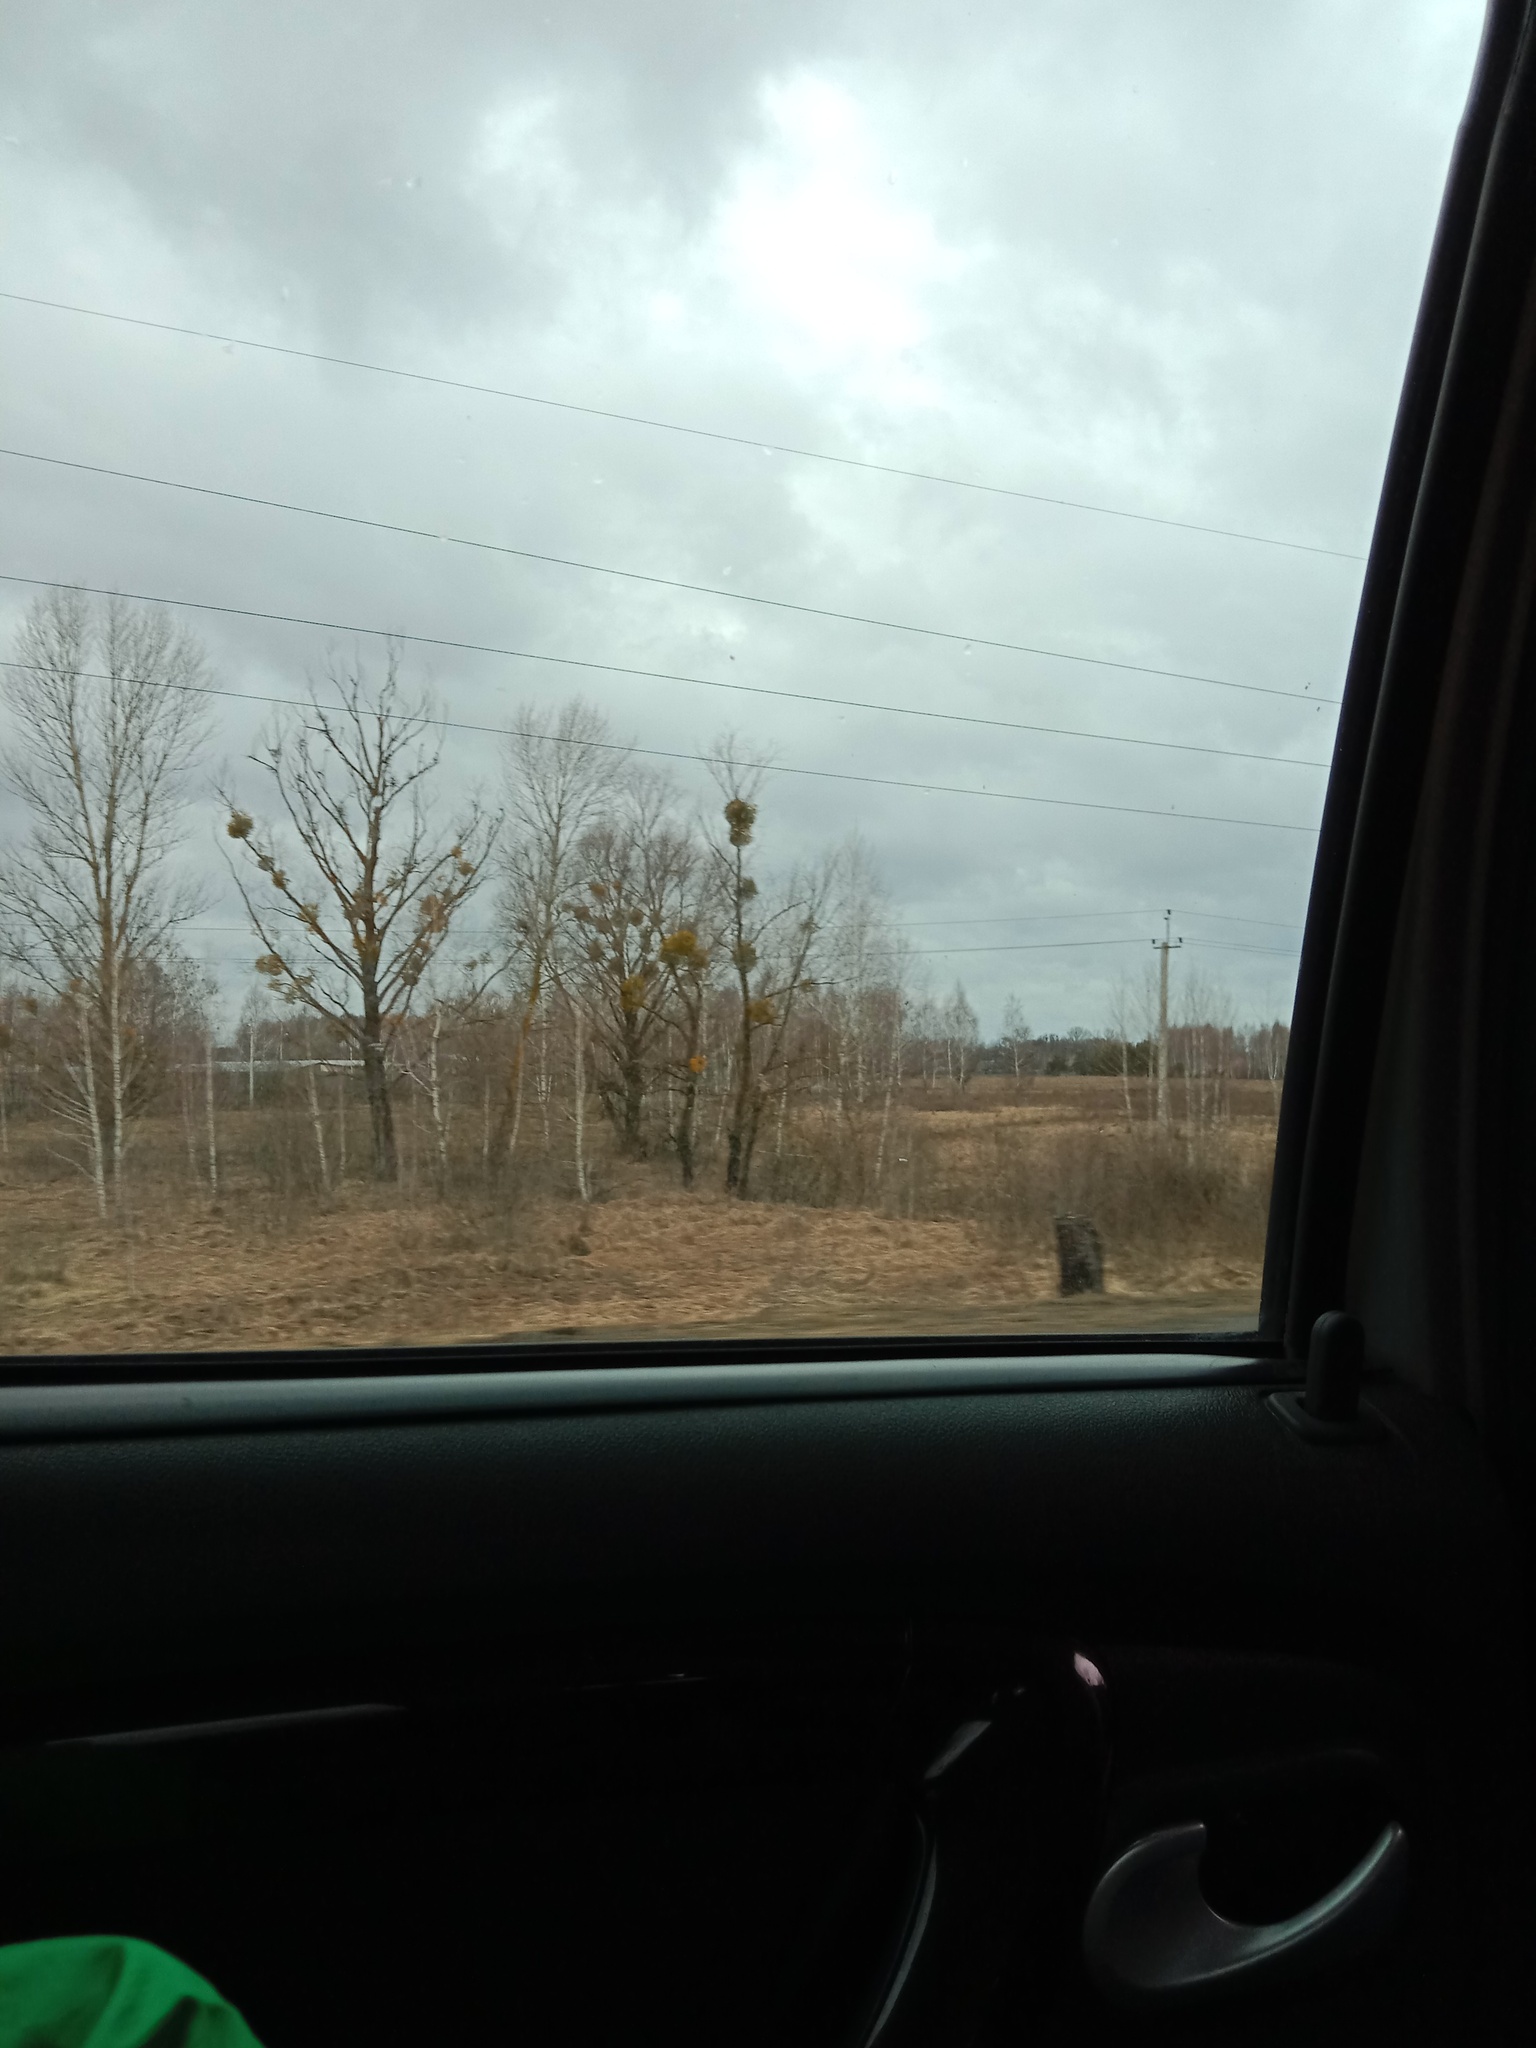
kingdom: Plantae
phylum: Tracheophyta
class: Magnoliopsida
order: Santalales
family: Viscaceae
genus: Viscum
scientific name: Viscum album
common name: Mistletoe
